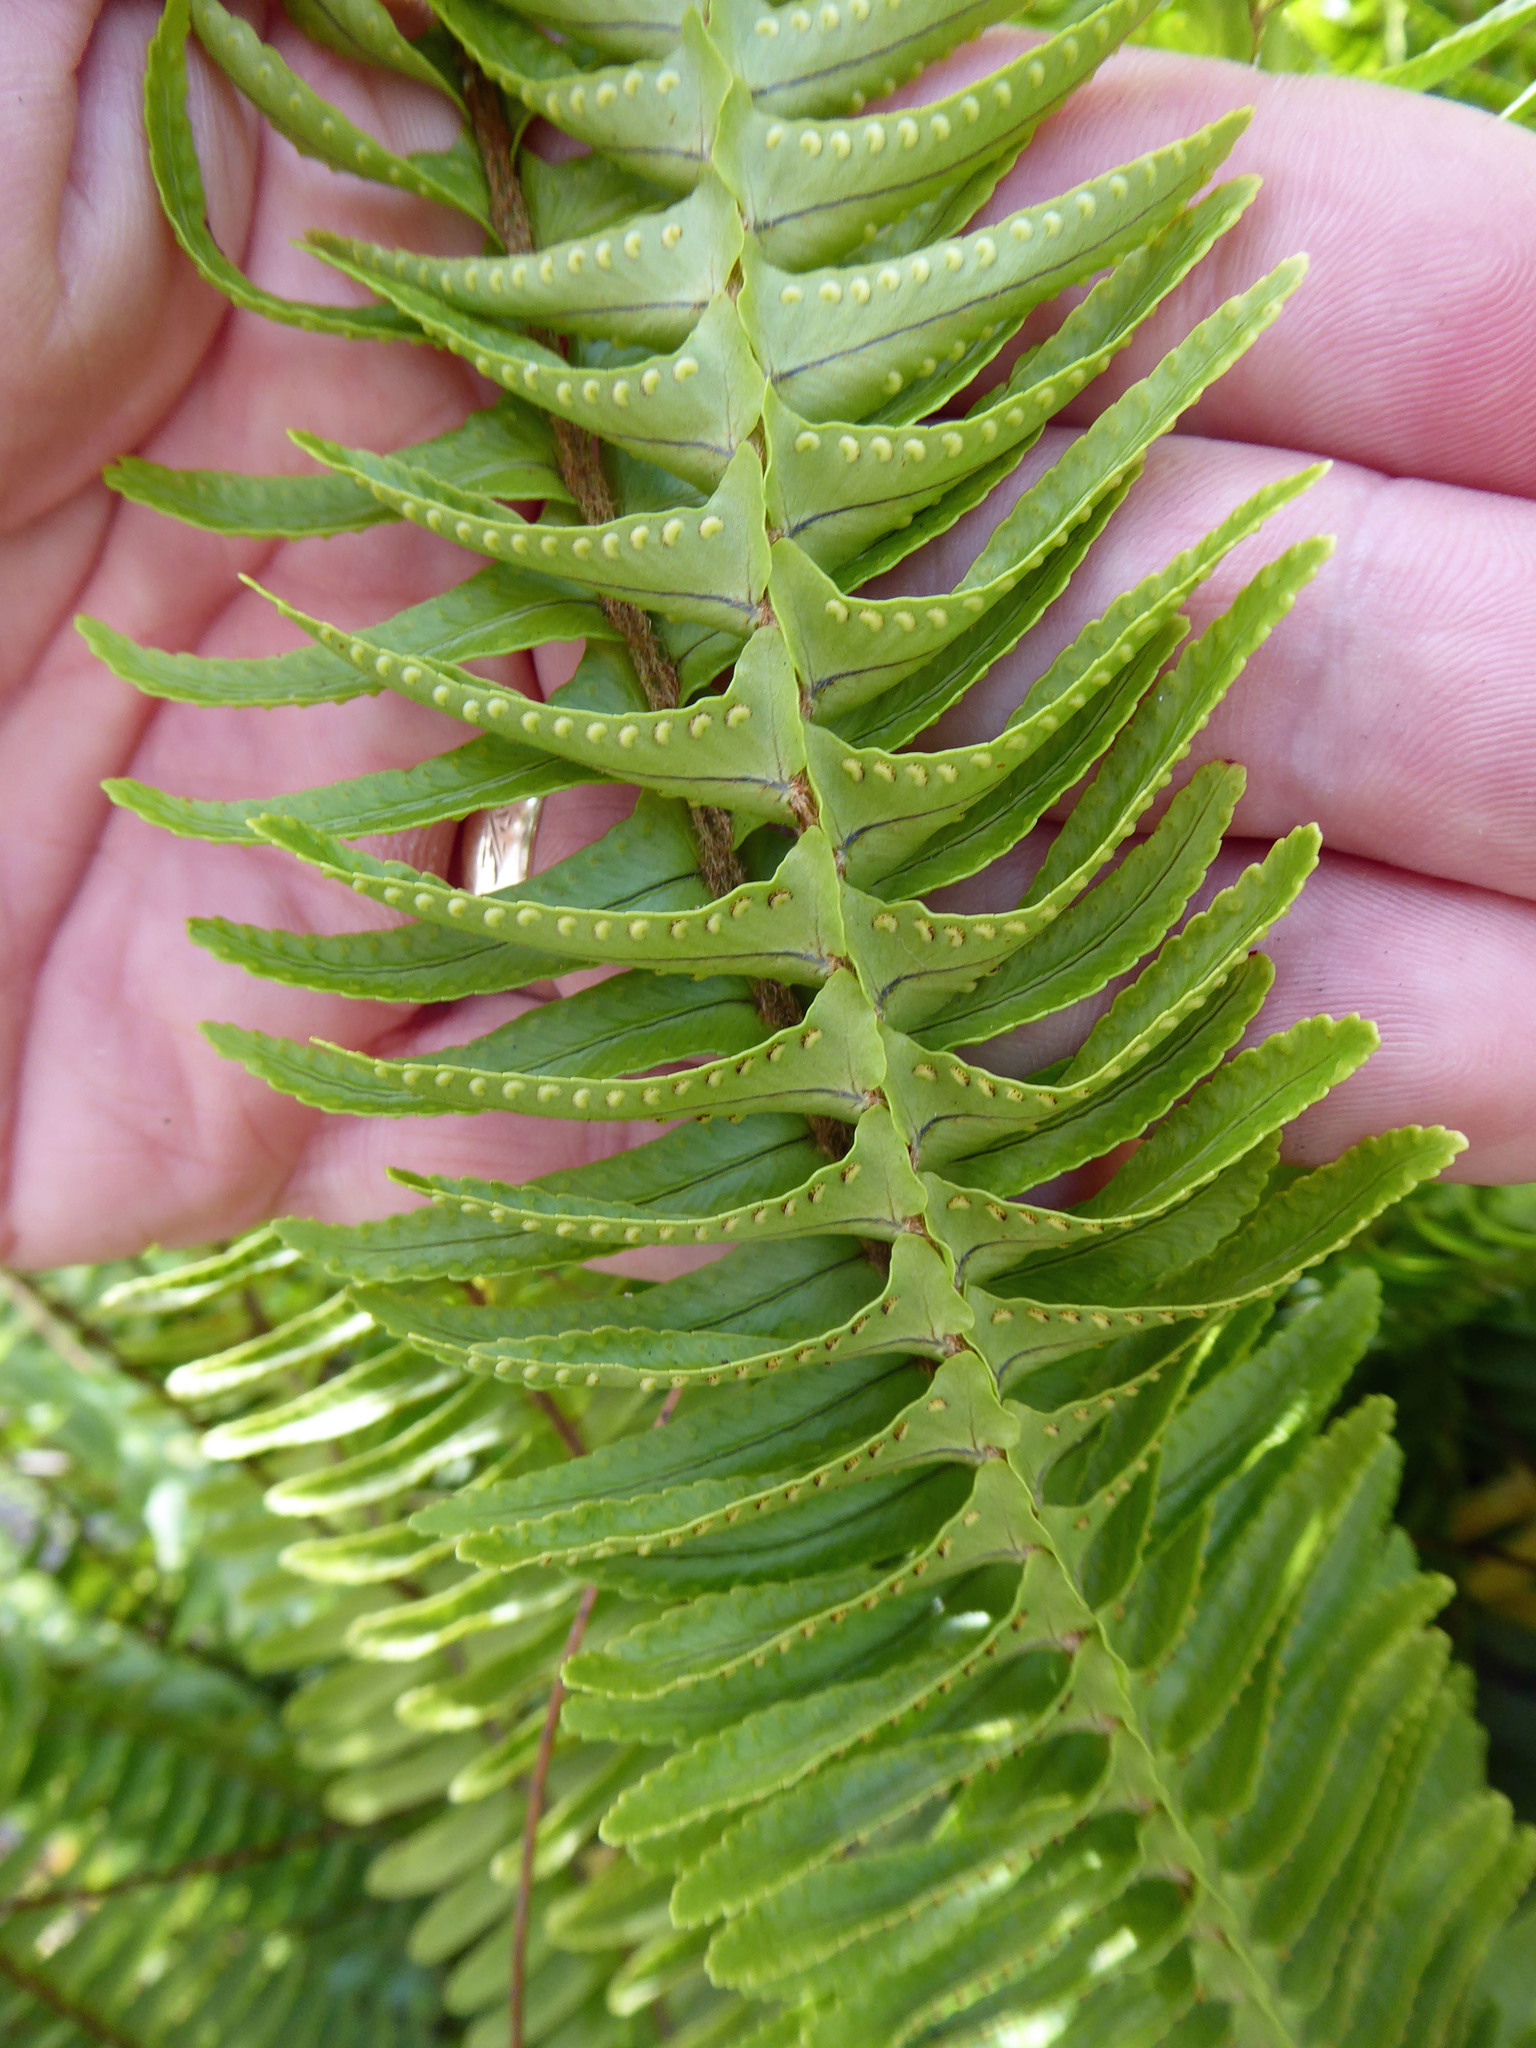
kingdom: Plantae
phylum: Tracheophyta
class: Polypodiopsida
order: Polypodiales
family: Nephrolepidaceae
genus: Nephrolepis
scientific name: Nephrolepis cordifolia
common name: Narrow swordfern
